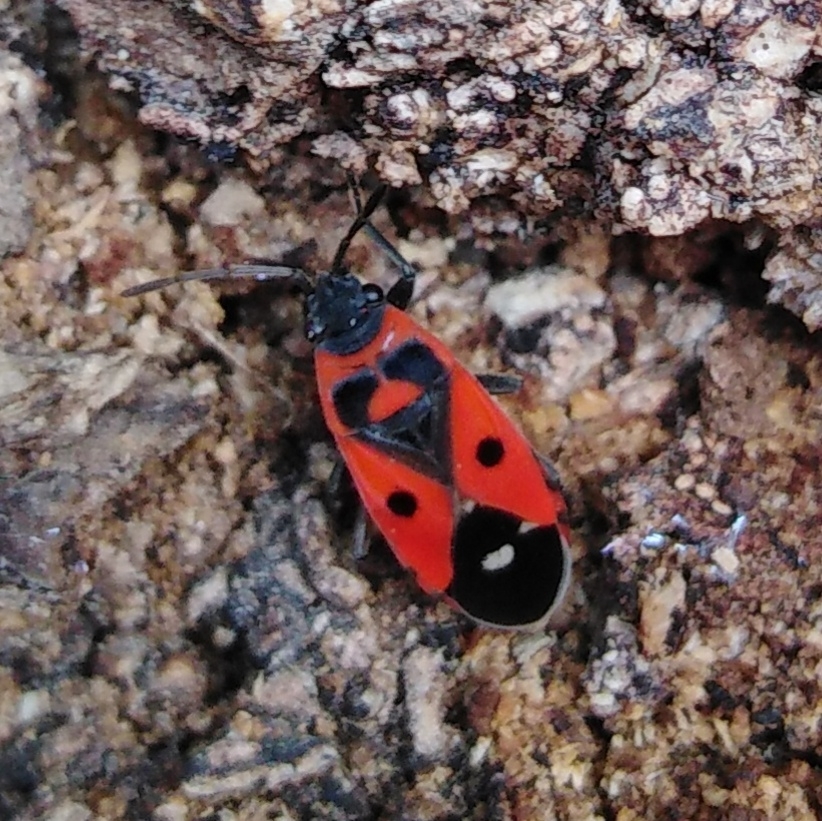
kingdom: Animalia
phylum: Arthropoda
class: Insecta
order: Hemiptera
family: Lygaeidae
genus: Melanocoryphus
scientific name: Melanocoryphus albomaculatus
